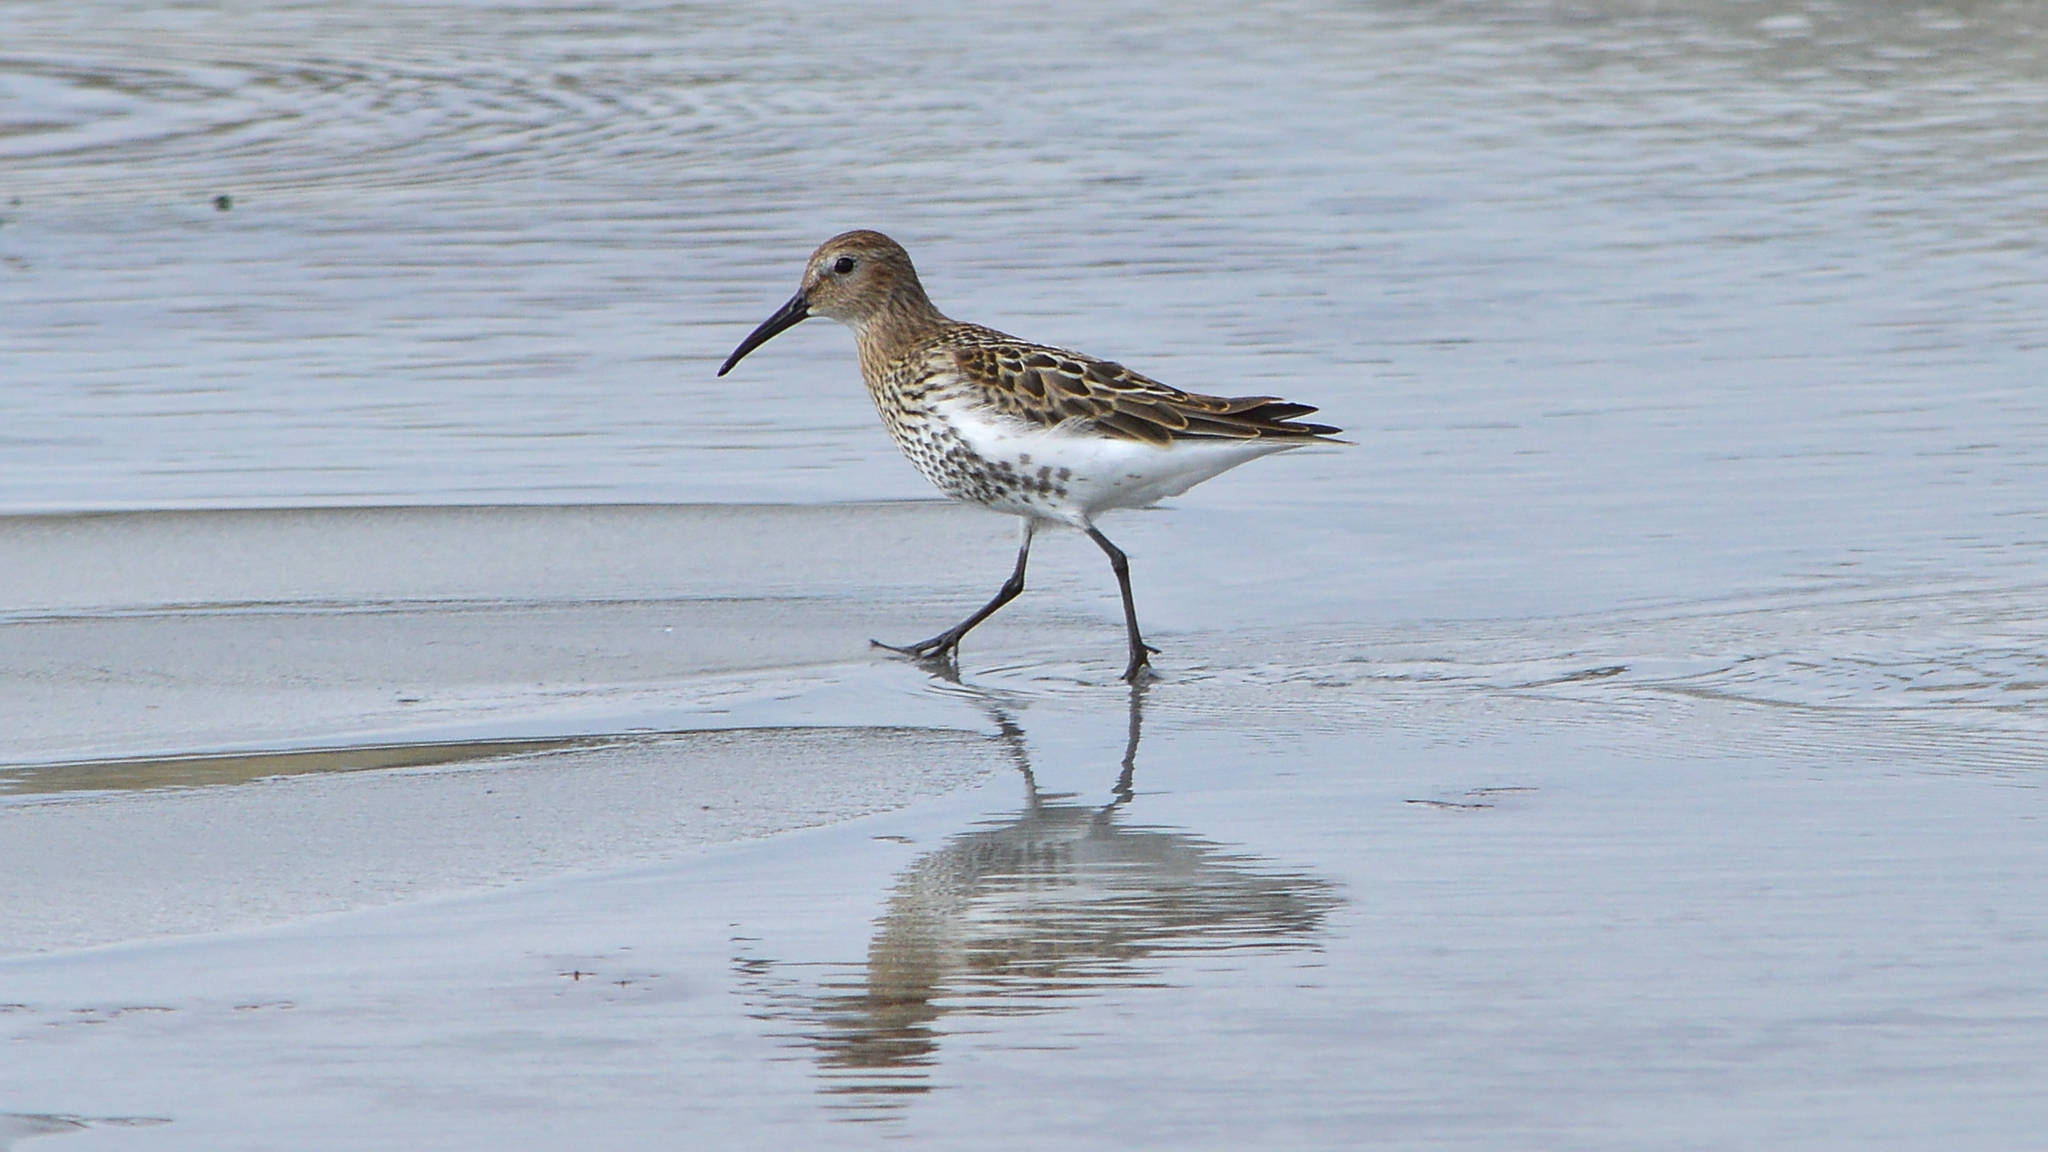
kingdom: Animalia
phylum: Chordata
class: Aves
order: Charadriiformes
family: Scolopacidae
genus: Calidris
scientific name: Calidris alpina
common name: Dunlin
